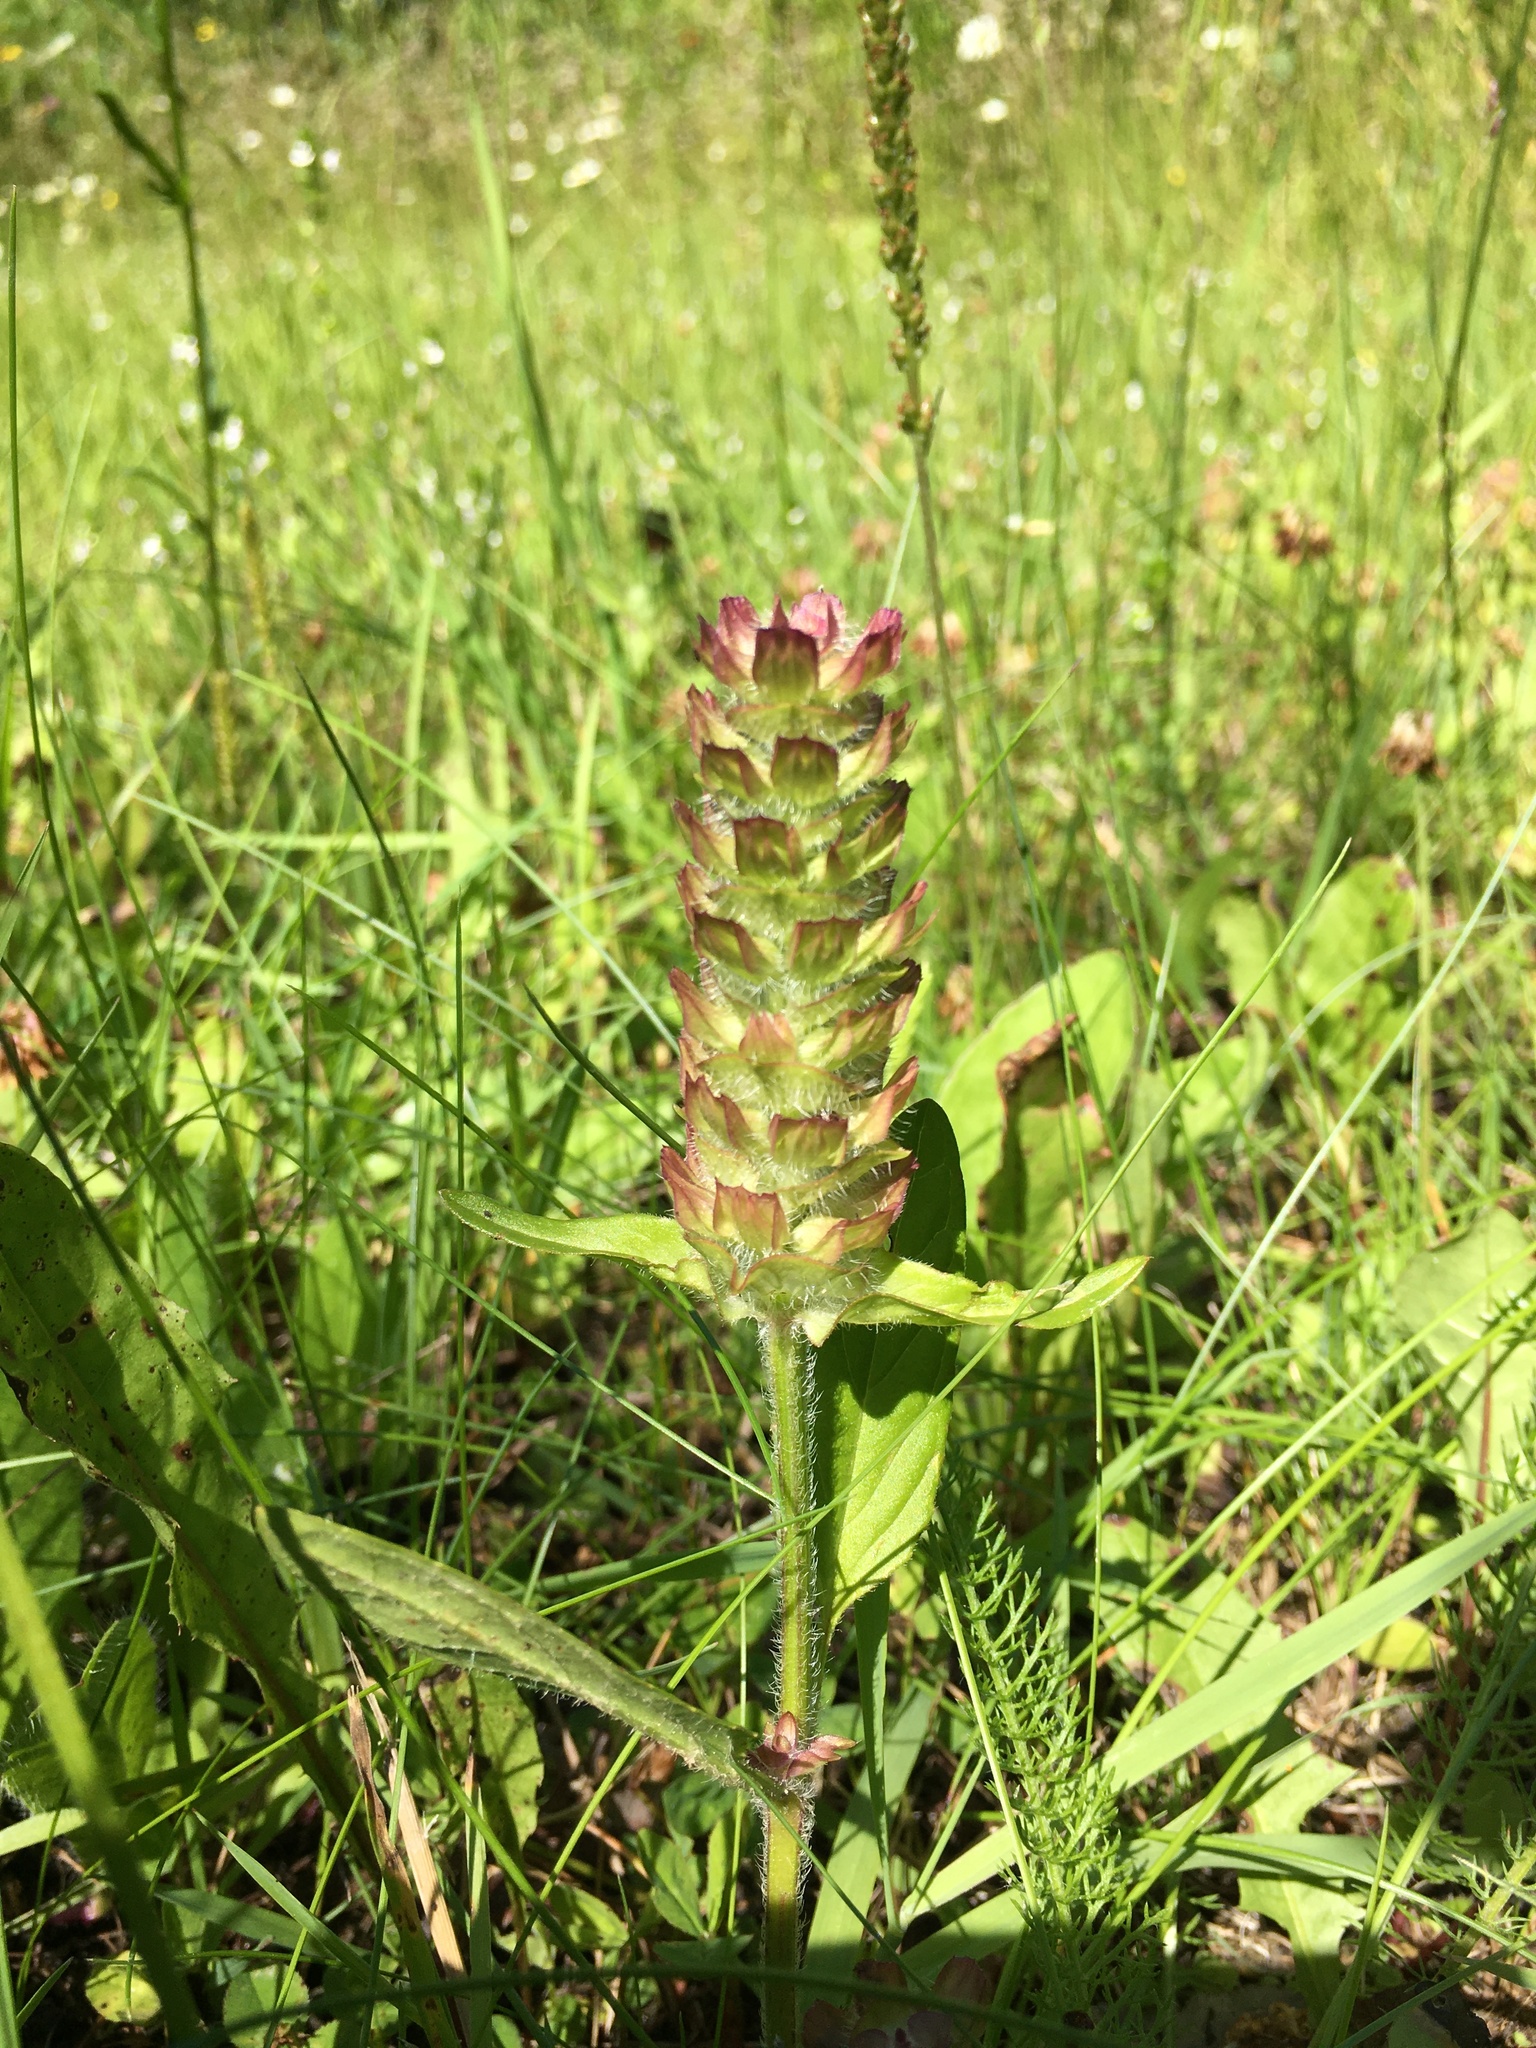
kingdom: Plantae
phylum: Tracheophyta
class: Magnoliopsida
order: Lamiales
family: Lamiaceae
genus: Prunella
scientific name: Prunella vulgaris
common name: Heal-all
